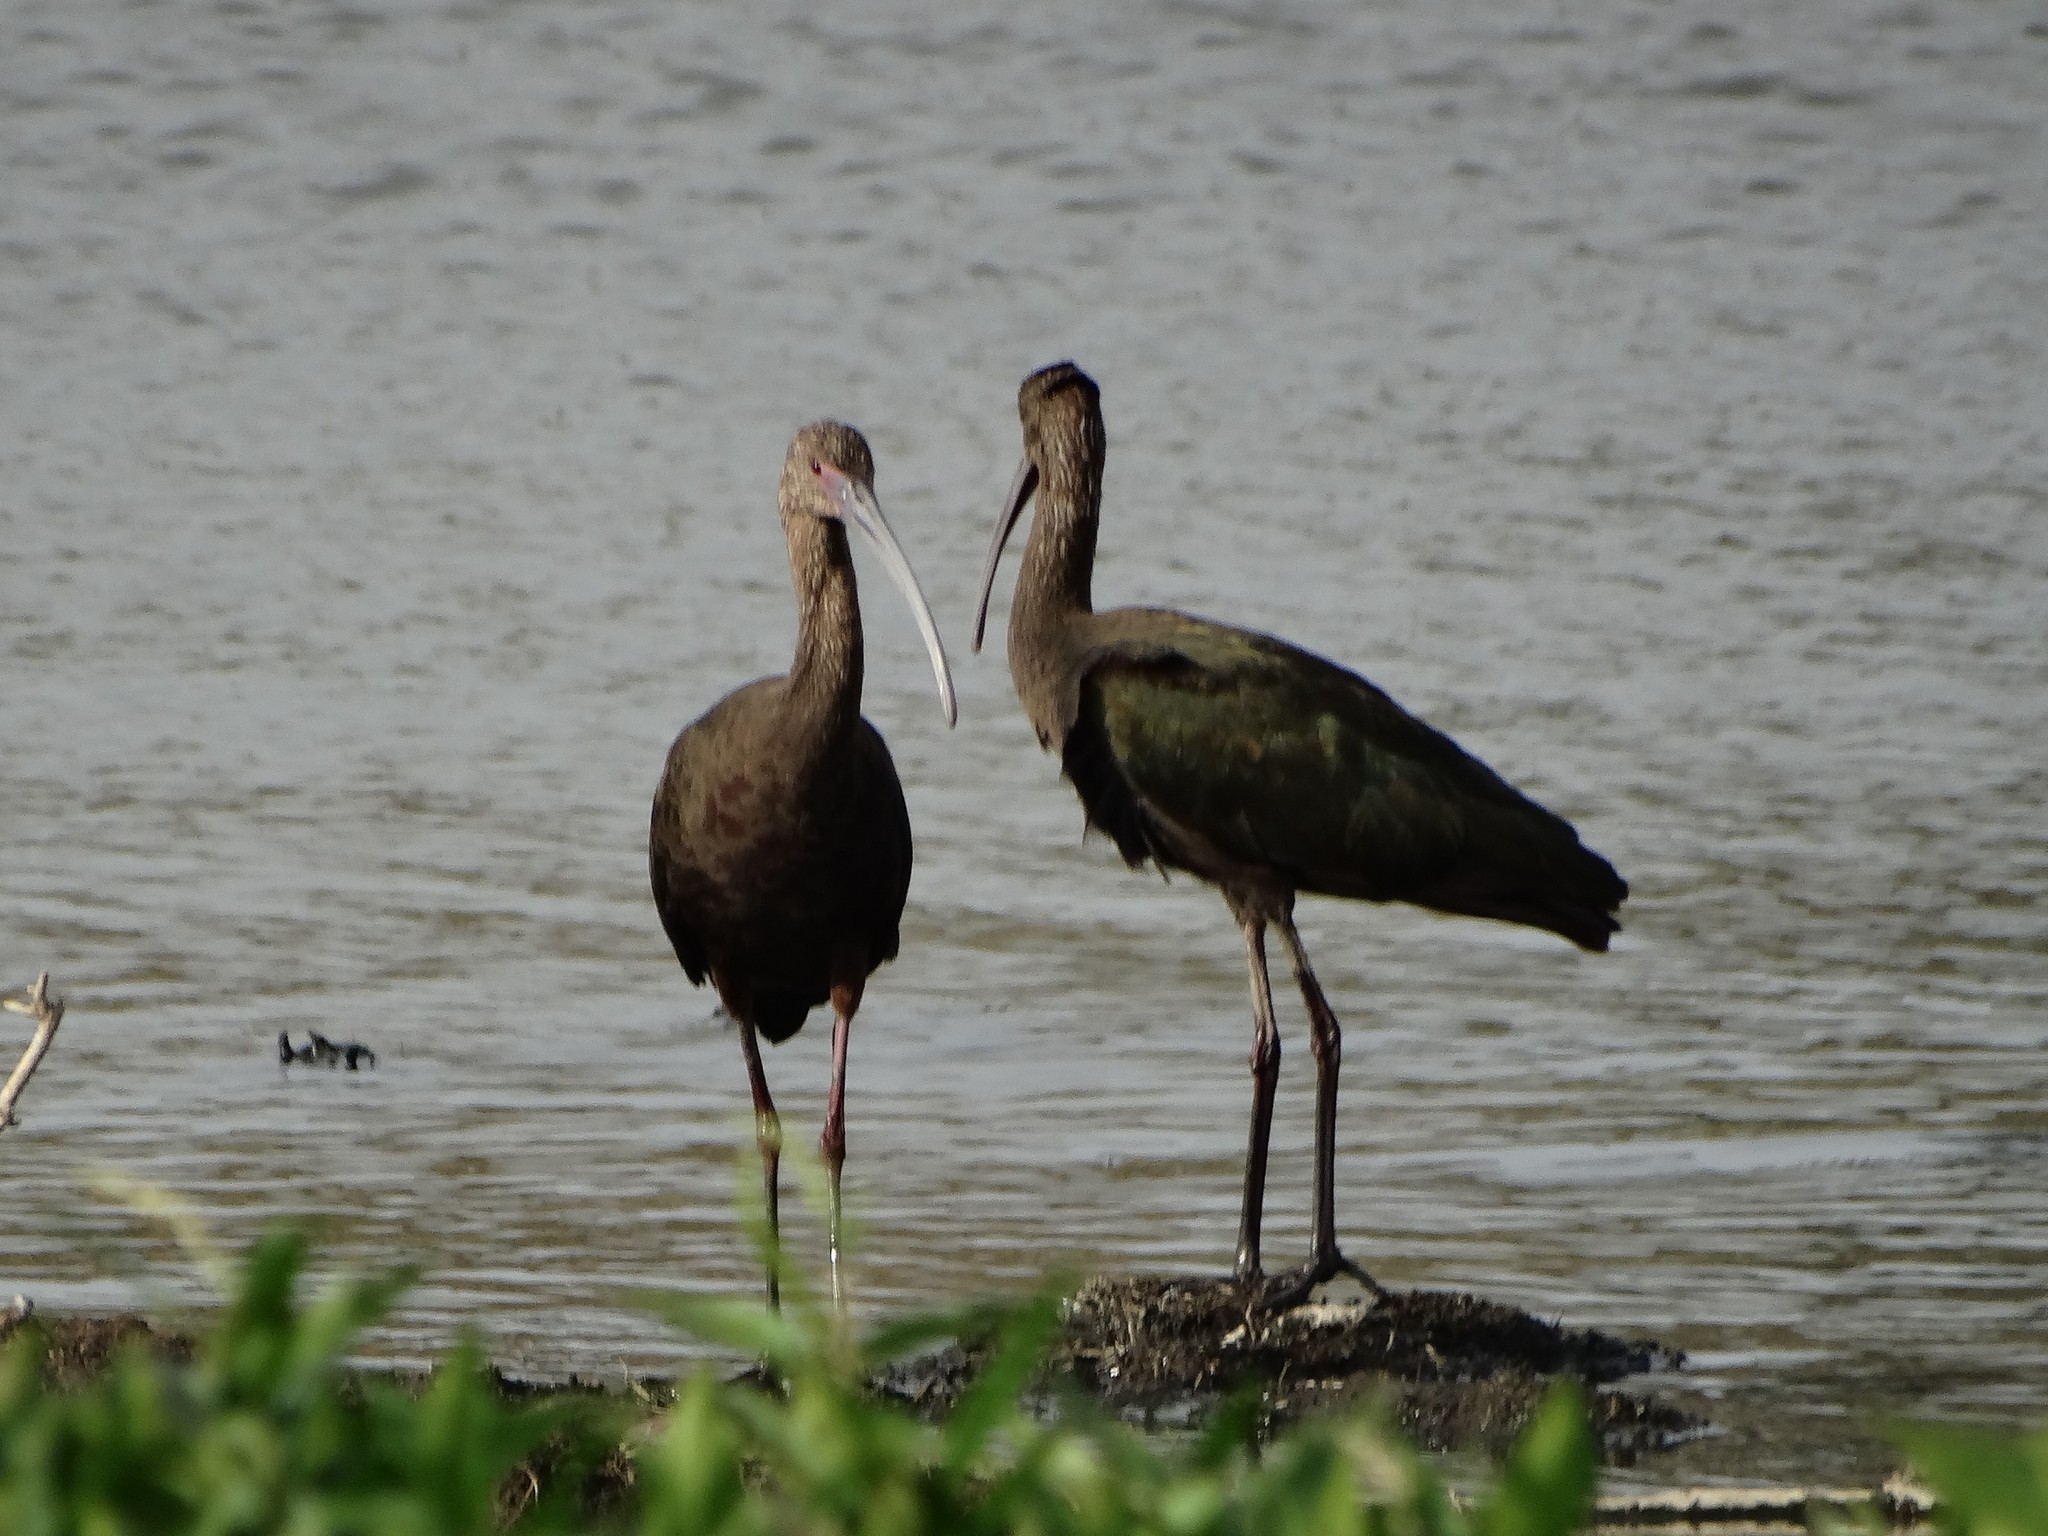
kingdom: Animalia
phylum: Chordata
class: Aves
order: Pelecaniformes
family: Threskiornithidae
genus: Plegadis
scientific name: Plegadis chihi
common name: White-faced ibis
